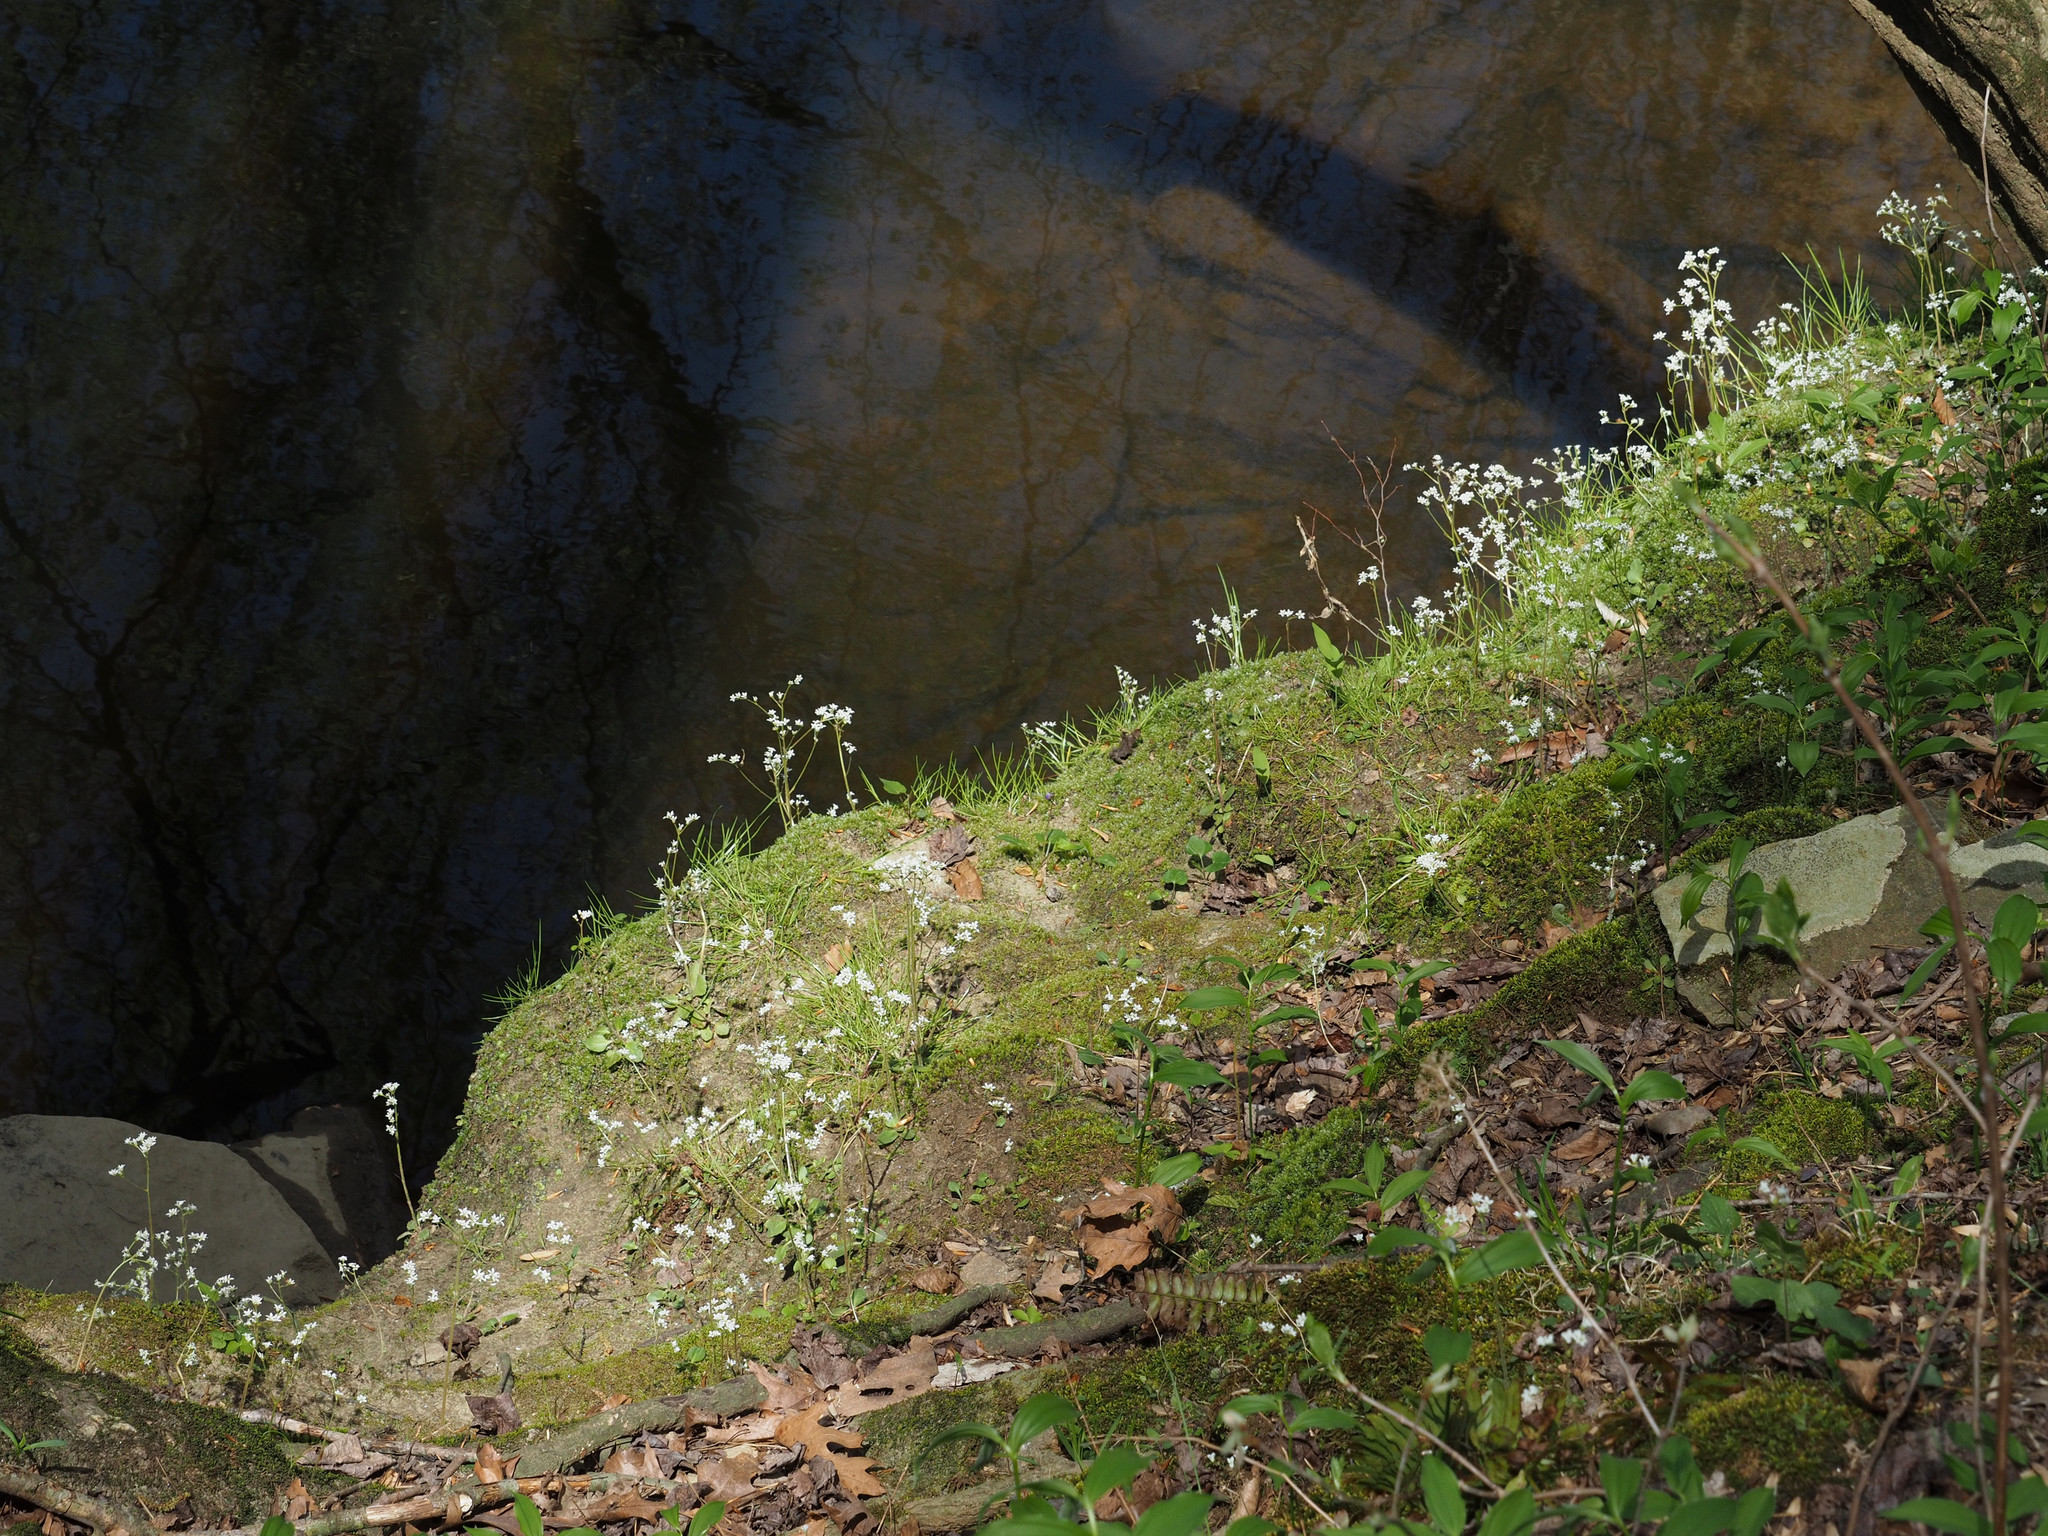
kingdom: Plantae
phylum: Tracheophyta
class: Magnoliopsida
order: Saxifragales
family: Saxifragaceae
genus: Micranthes
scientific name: Micranthes virginiensis
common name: Early saxifrage
